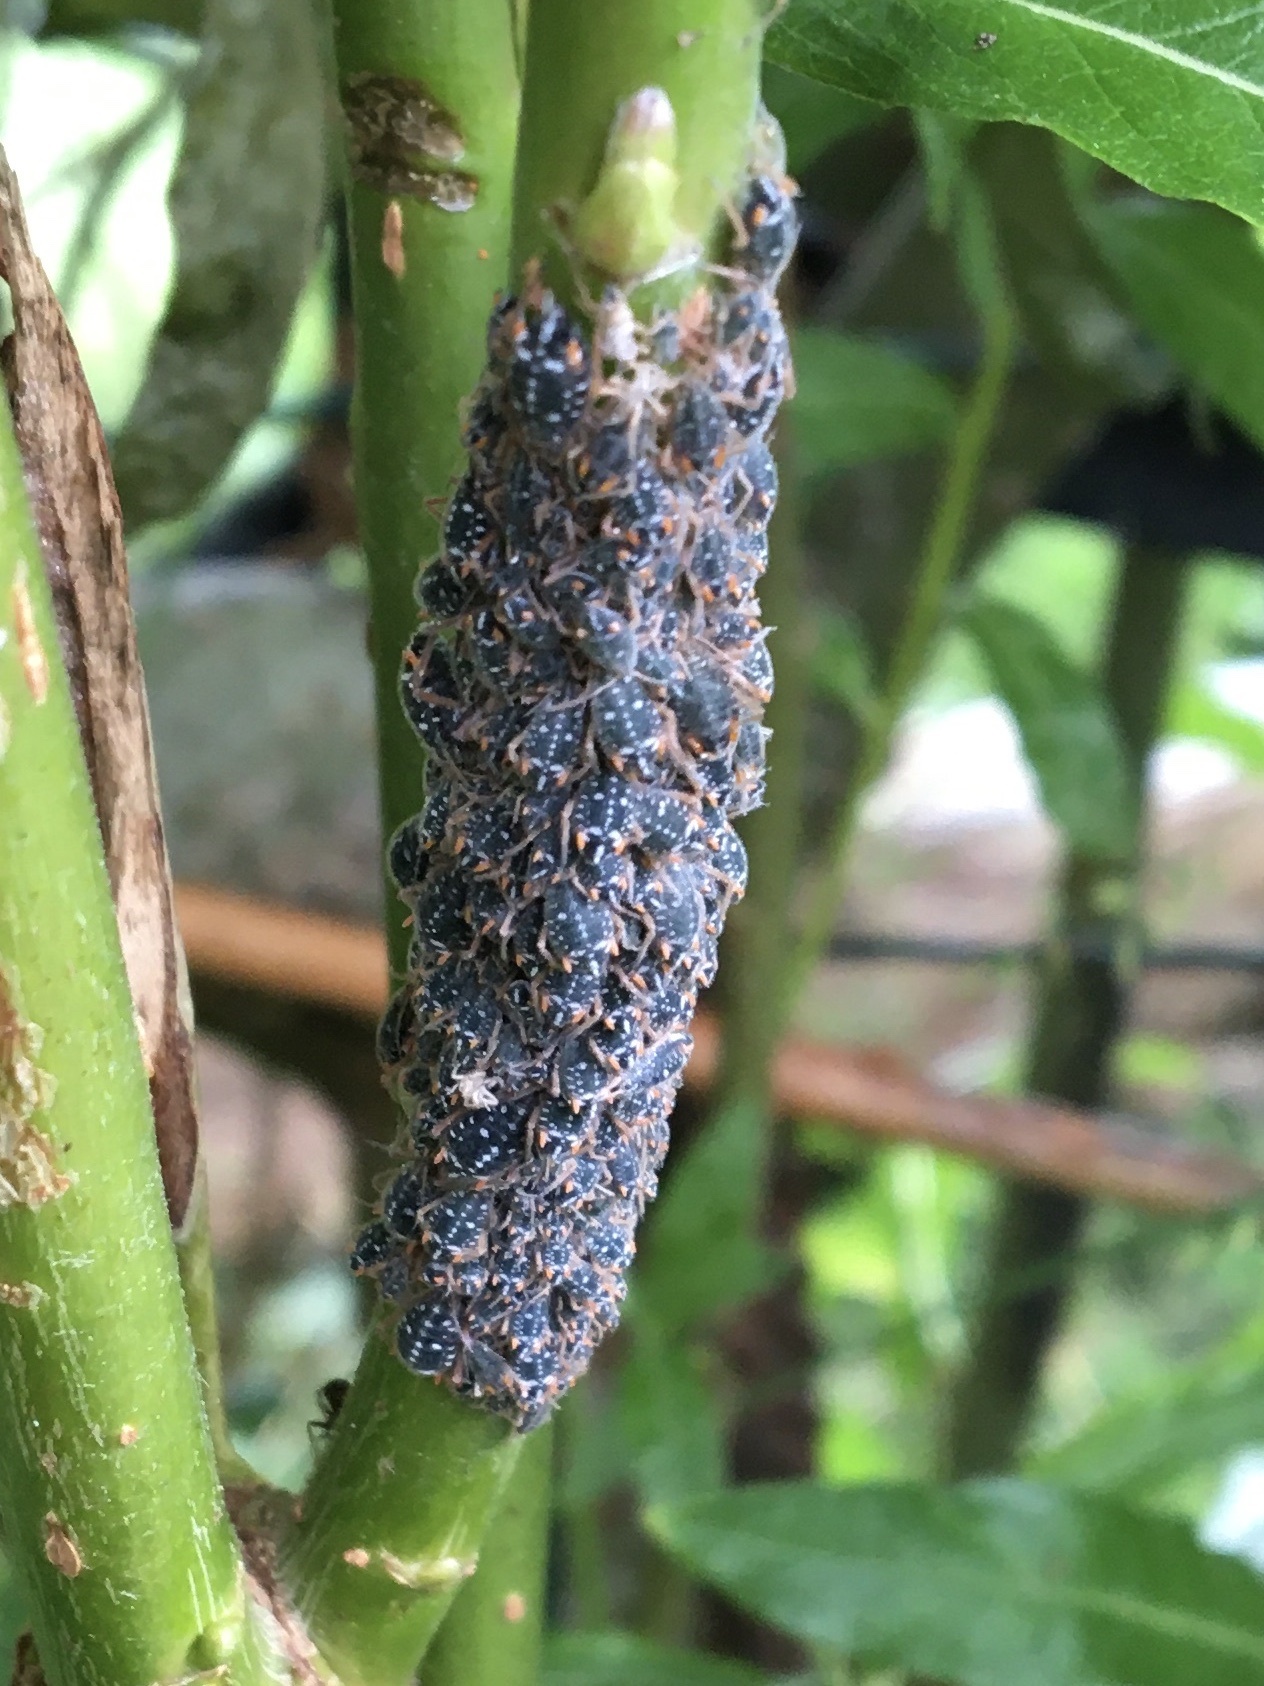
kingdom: Animalia
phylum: Arthropoda
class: Insecta
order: Hemiptera
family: Aphididae
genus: Pterocomma
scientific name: Pterocomma salicis
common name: Aphid
